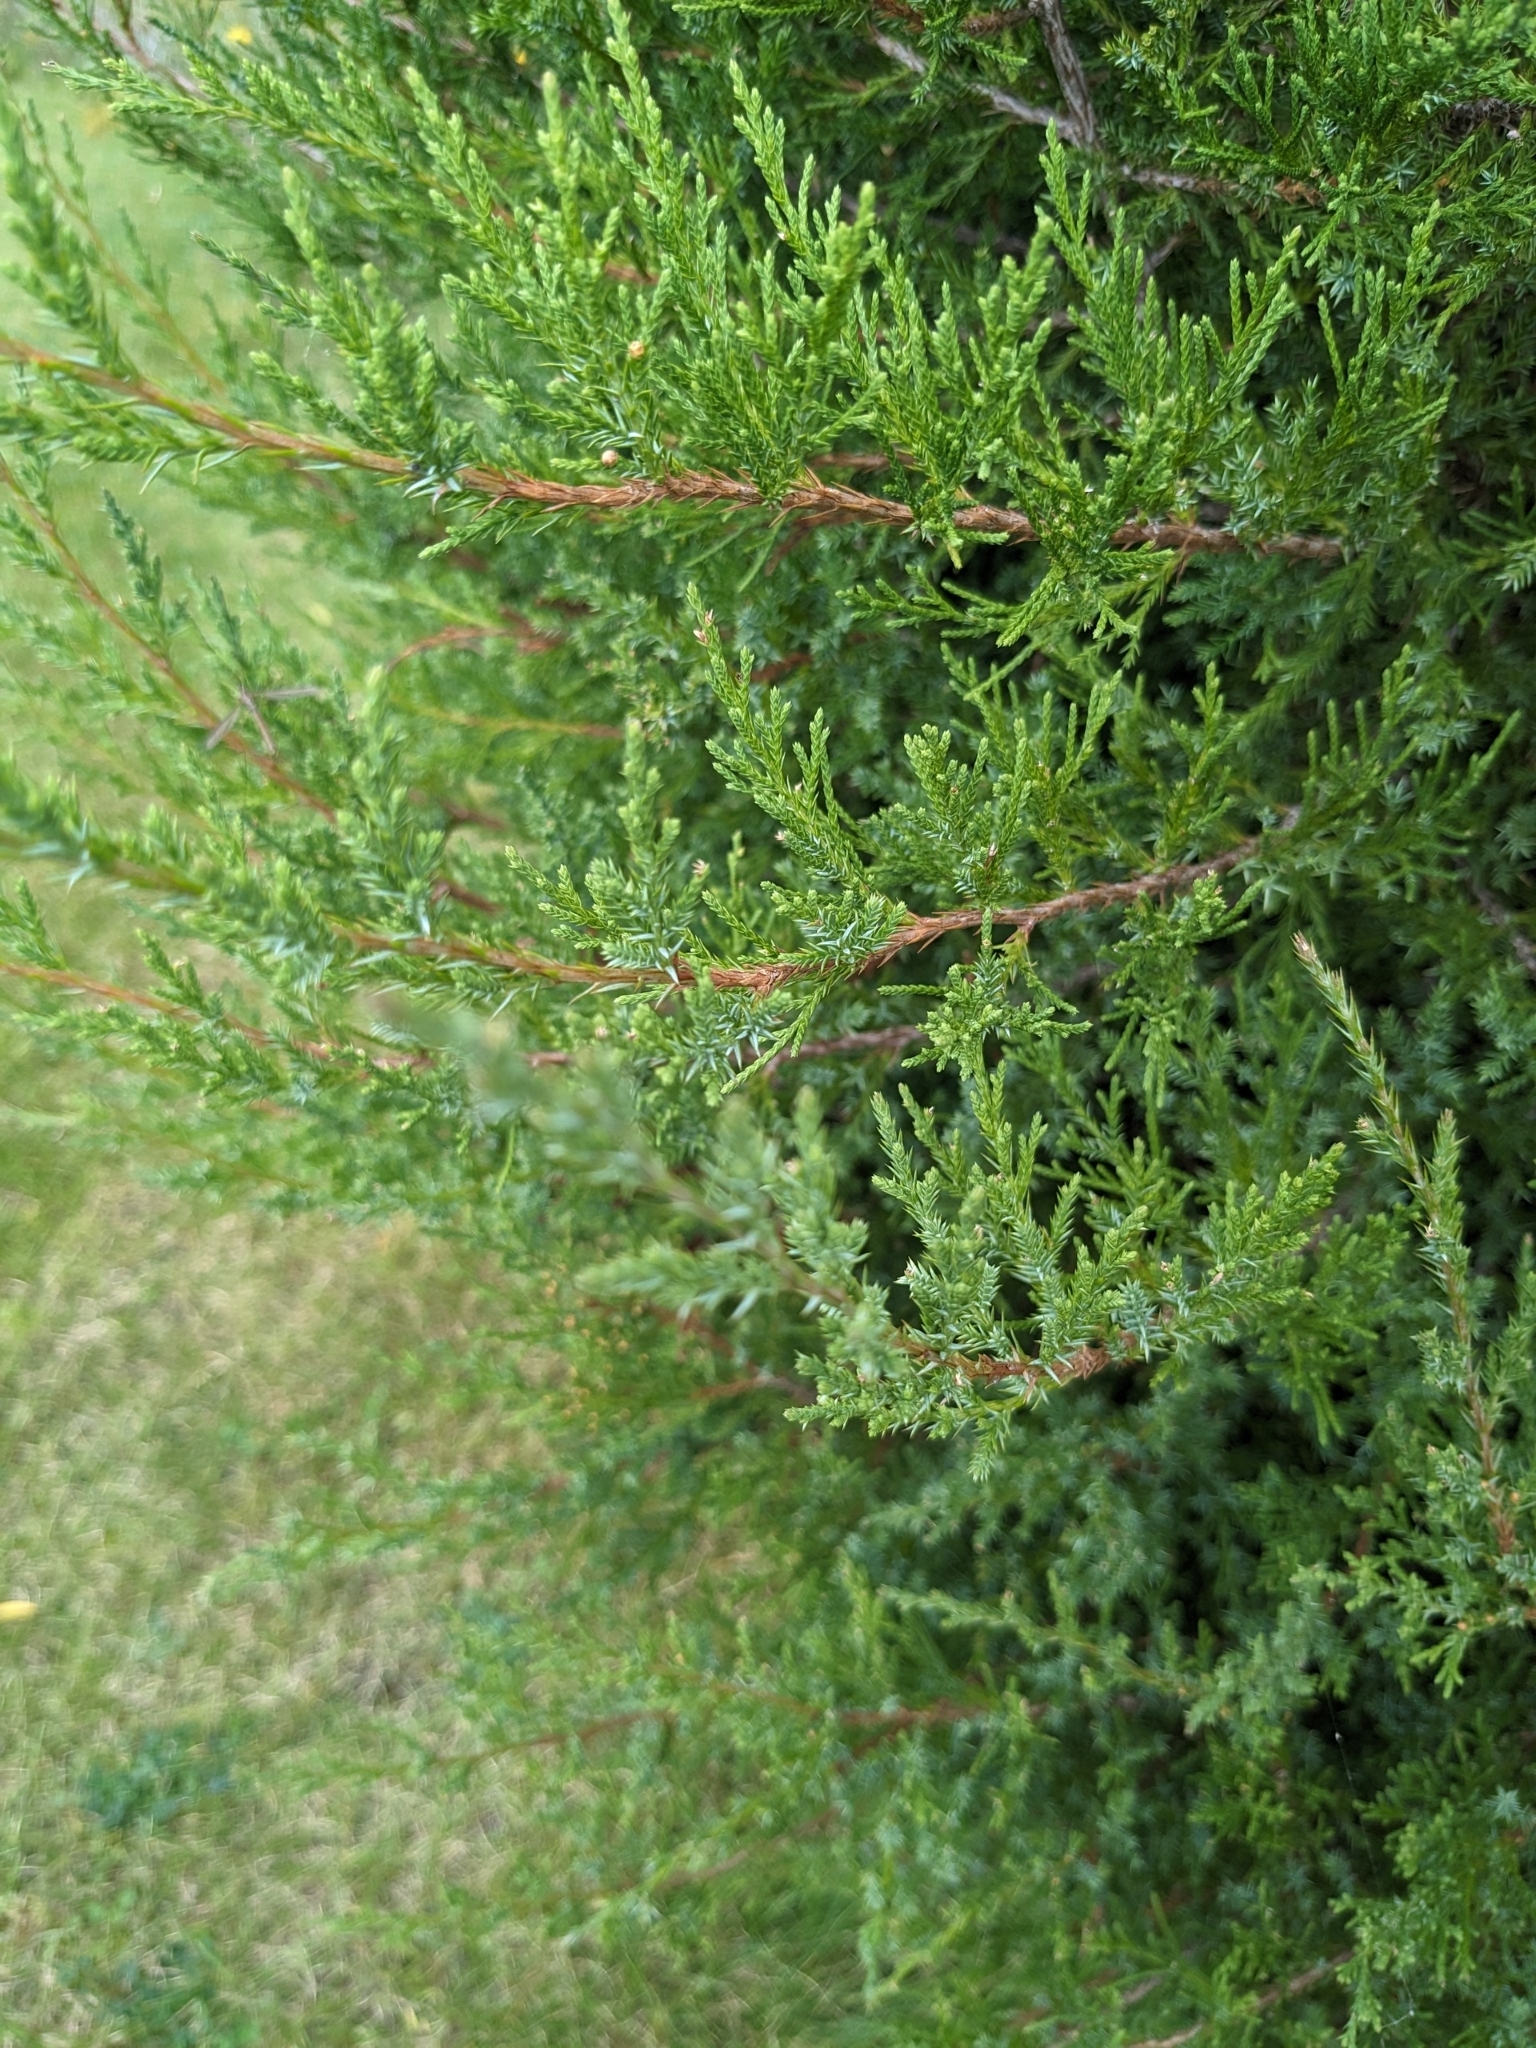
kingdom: Plantae
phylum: Tracheophyta
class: Pinopsida
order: Pinales
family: Cupressaceae
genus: Juniperus
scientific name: Juniperus virginiana
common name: Red juniper
